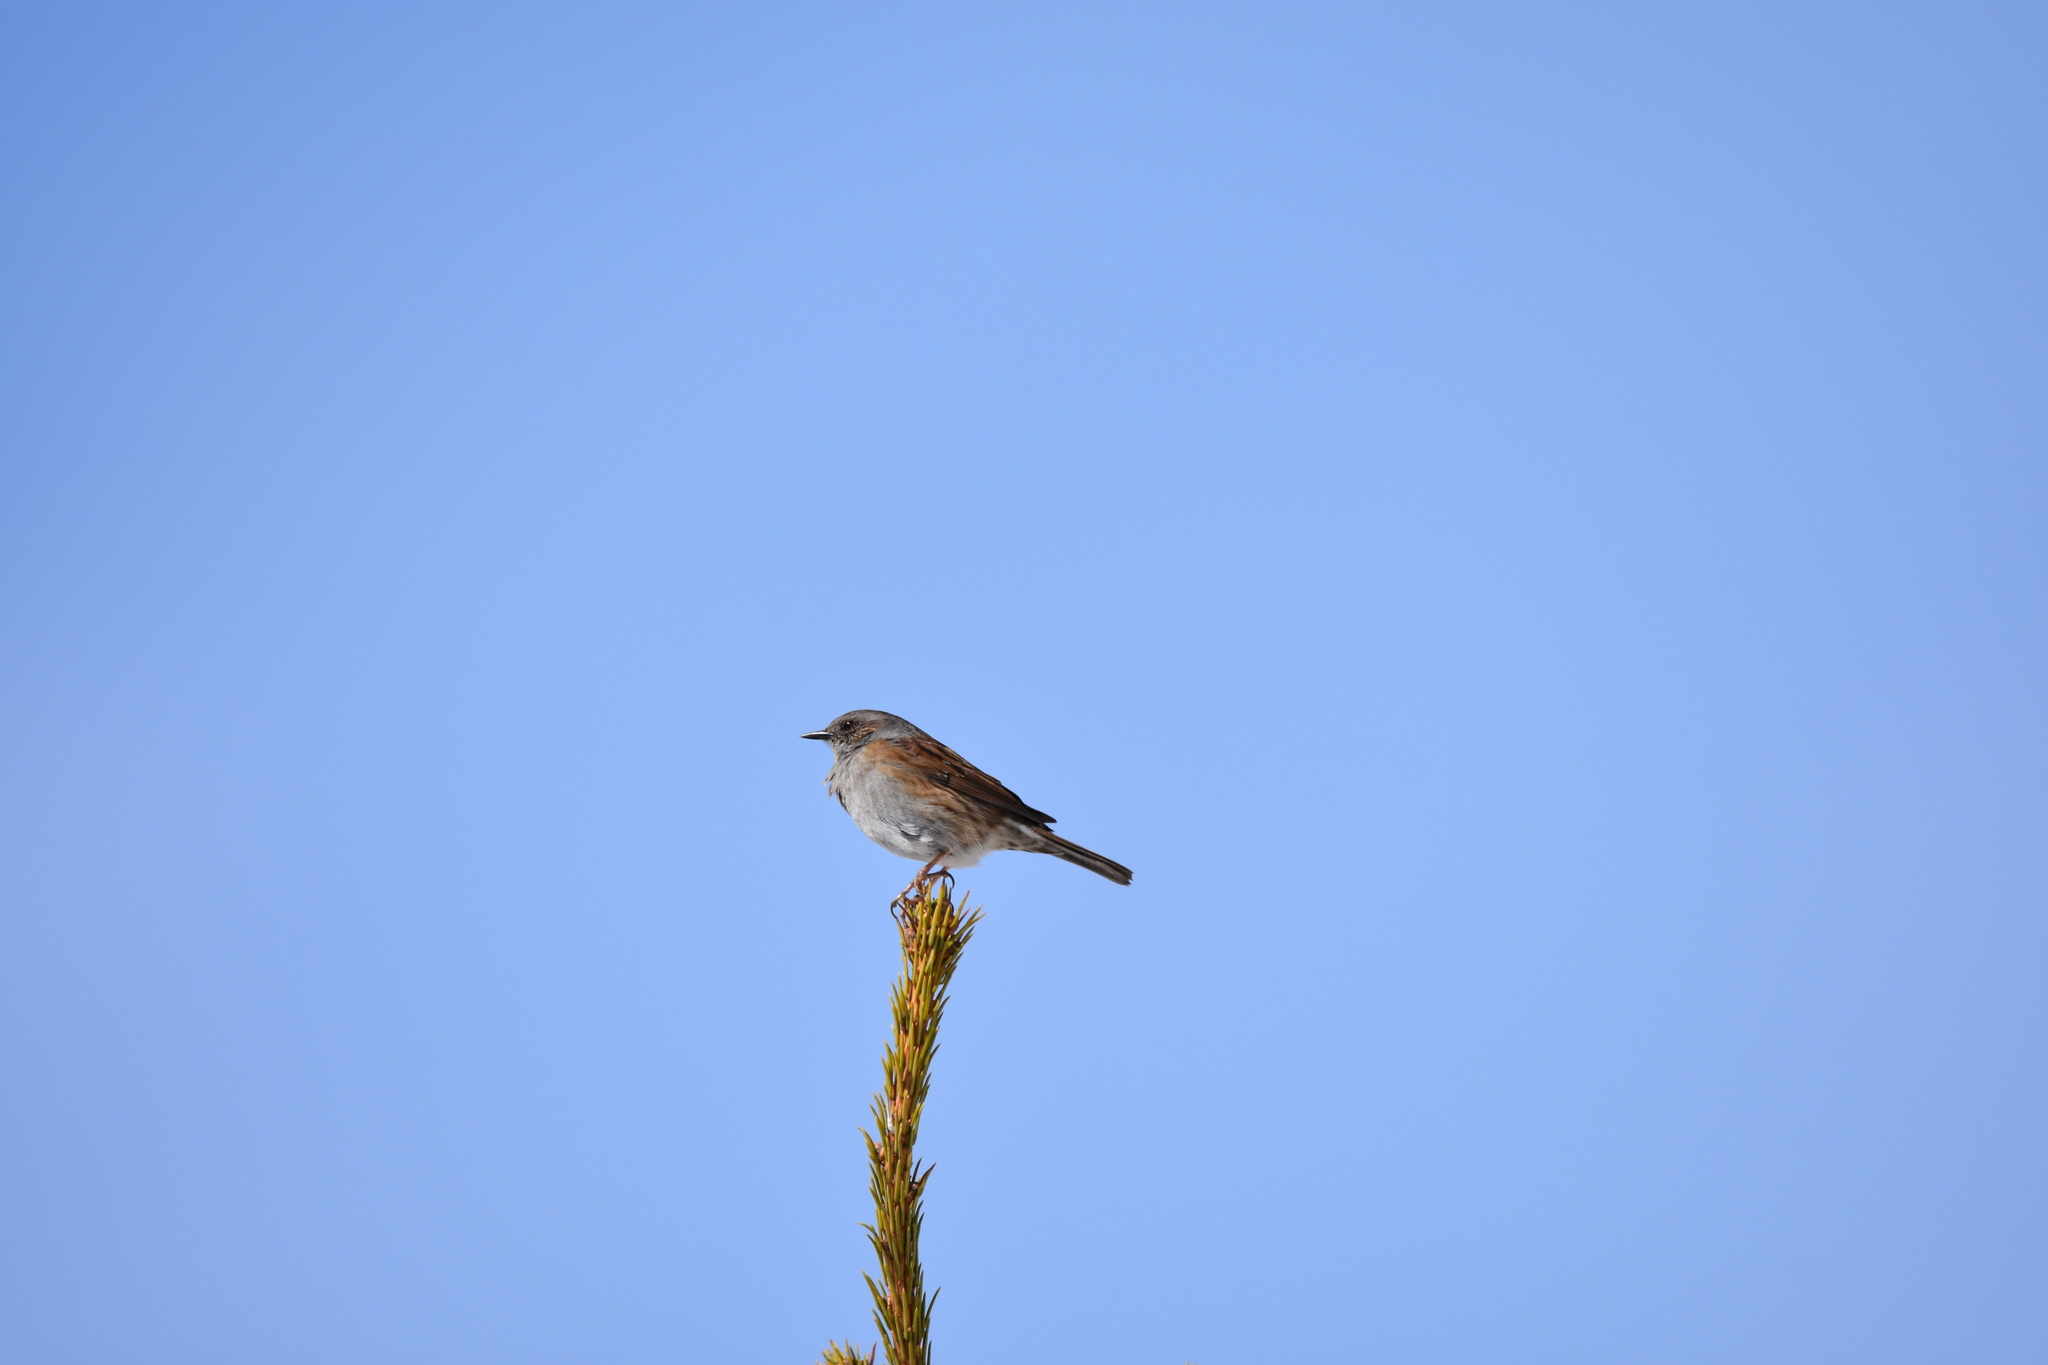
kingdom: Animalia
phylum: Chordata
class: Aves
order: Passeriformes
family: Prunellidae
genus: Prunella
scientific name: Prunella modularis
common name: Dunnock
